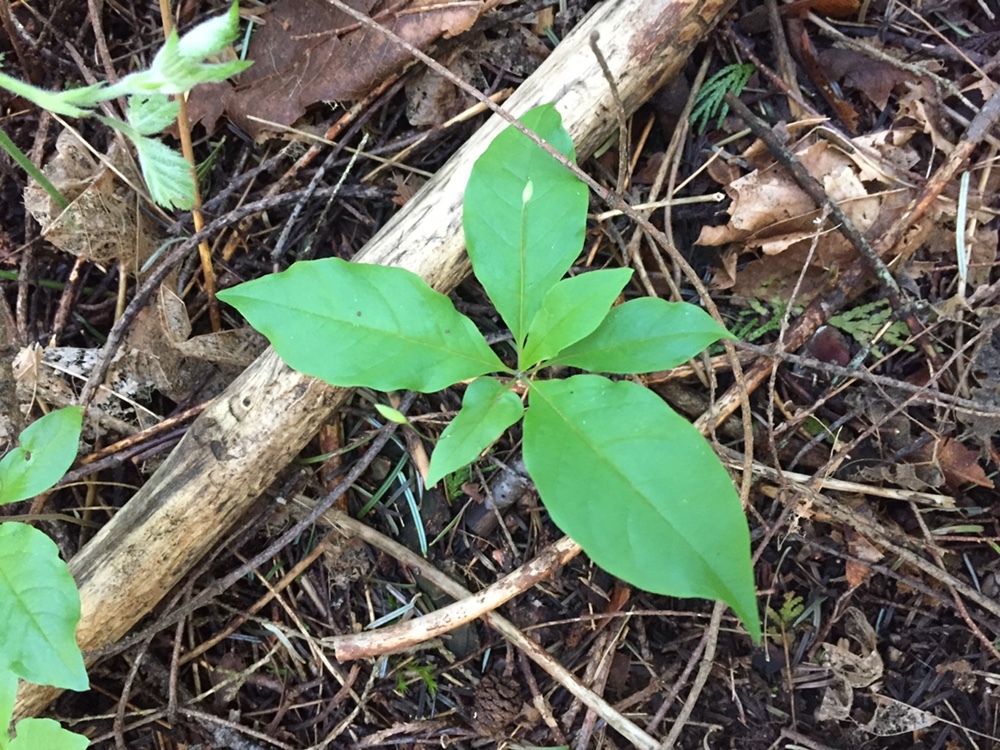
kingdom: Plantae
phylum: Tracheophyta
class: Magnoliopsida
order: Ericales
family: Primulaceae
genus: Lysimachia
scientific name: Lysimachia latifolia
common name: Pacific starflower
